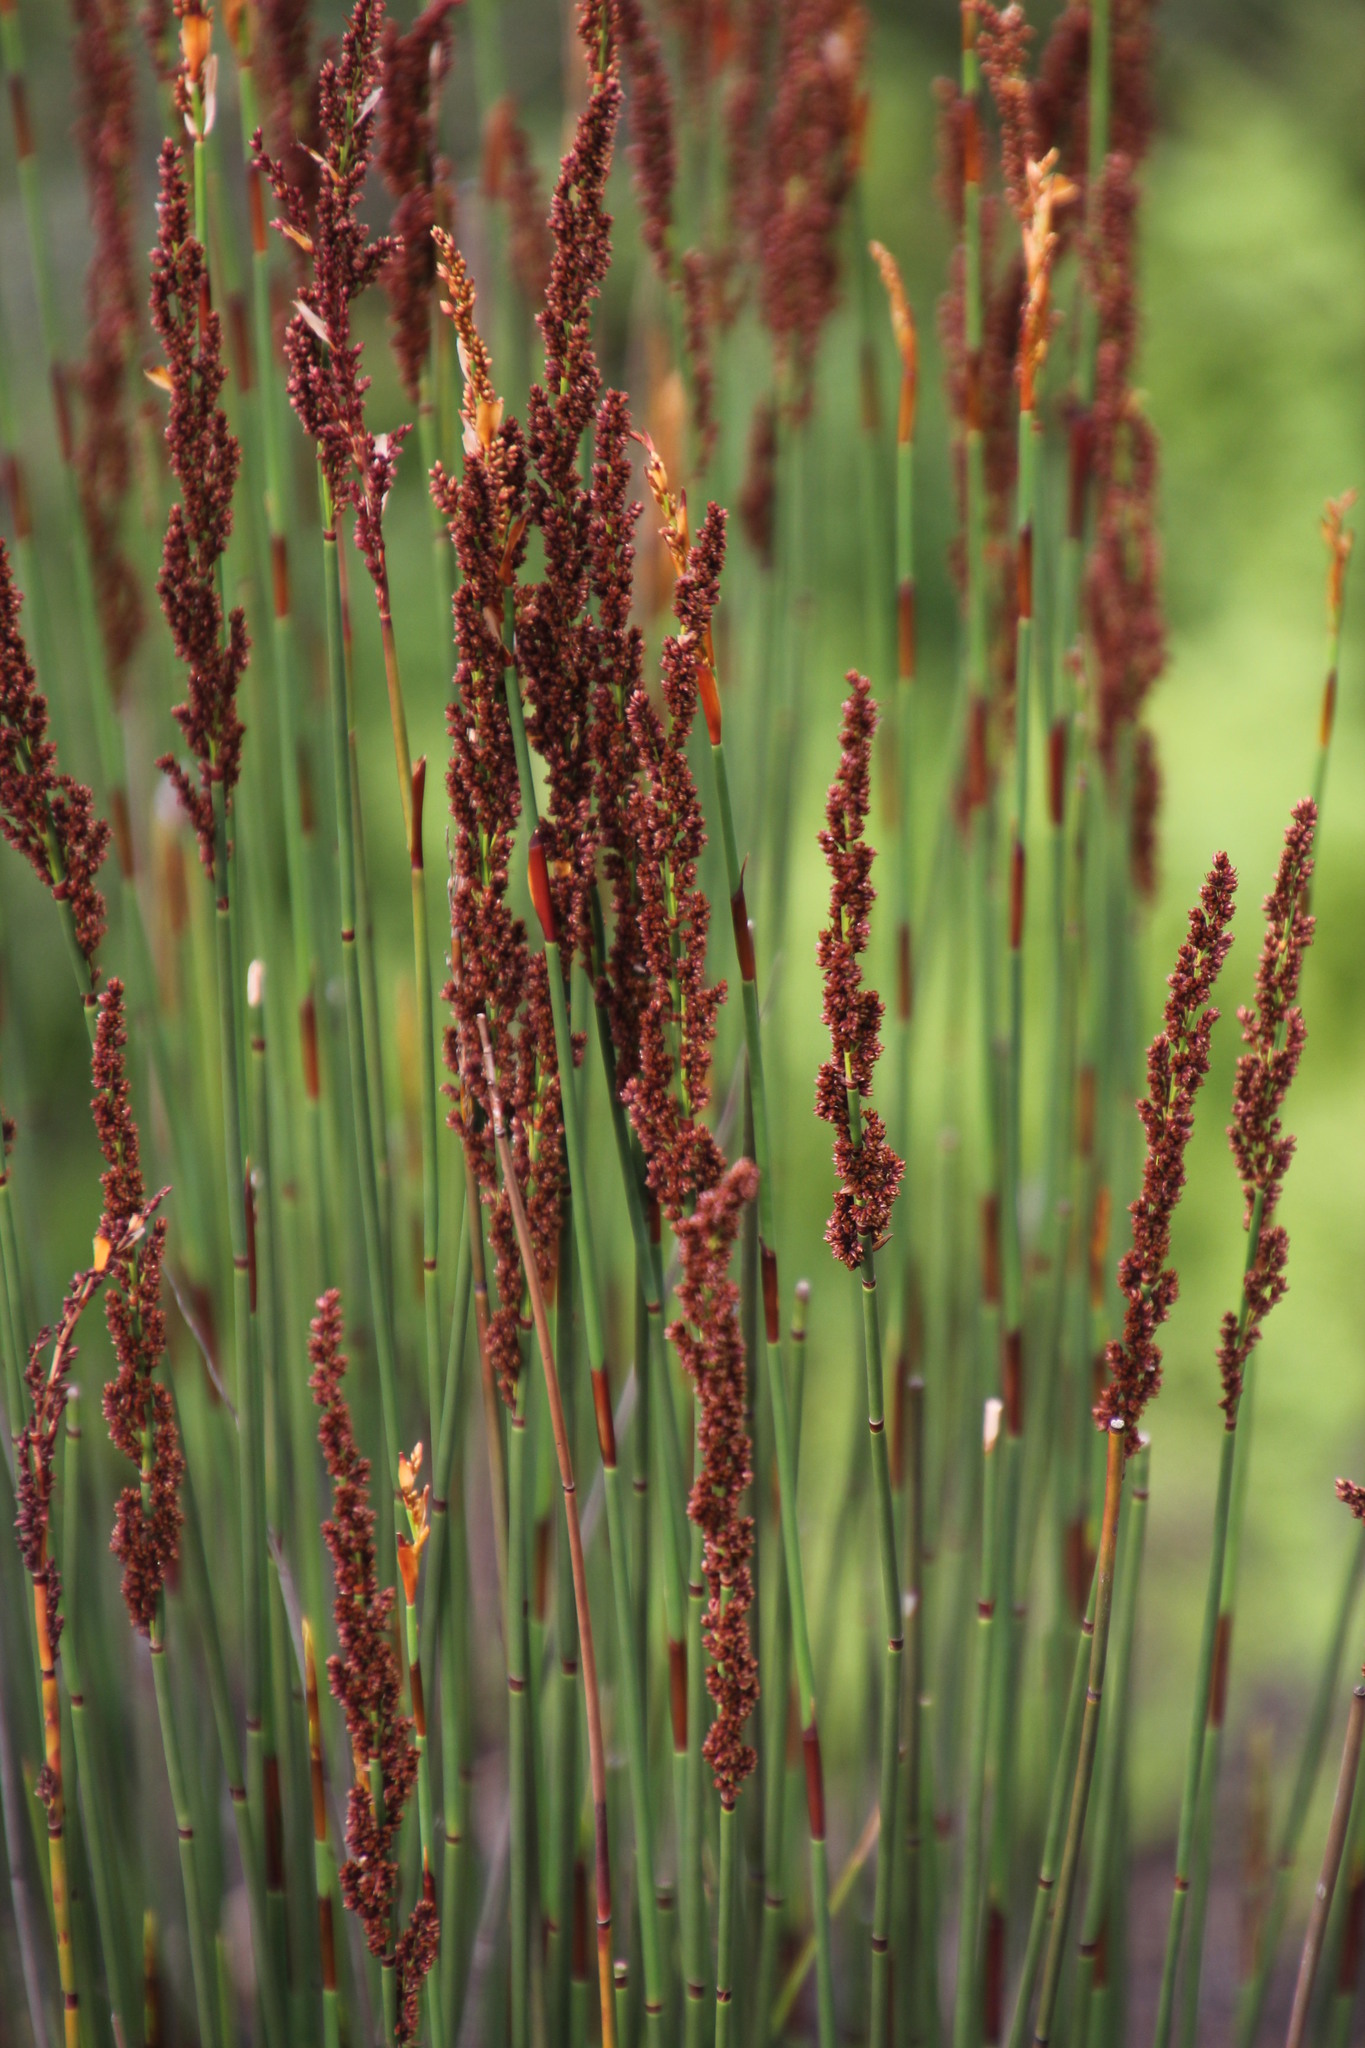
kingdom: Plantae
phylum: Tracheophyta
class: Liliopsida
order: Poales
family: Restionaceae
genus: Elegia
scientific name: Elegia tectorum
